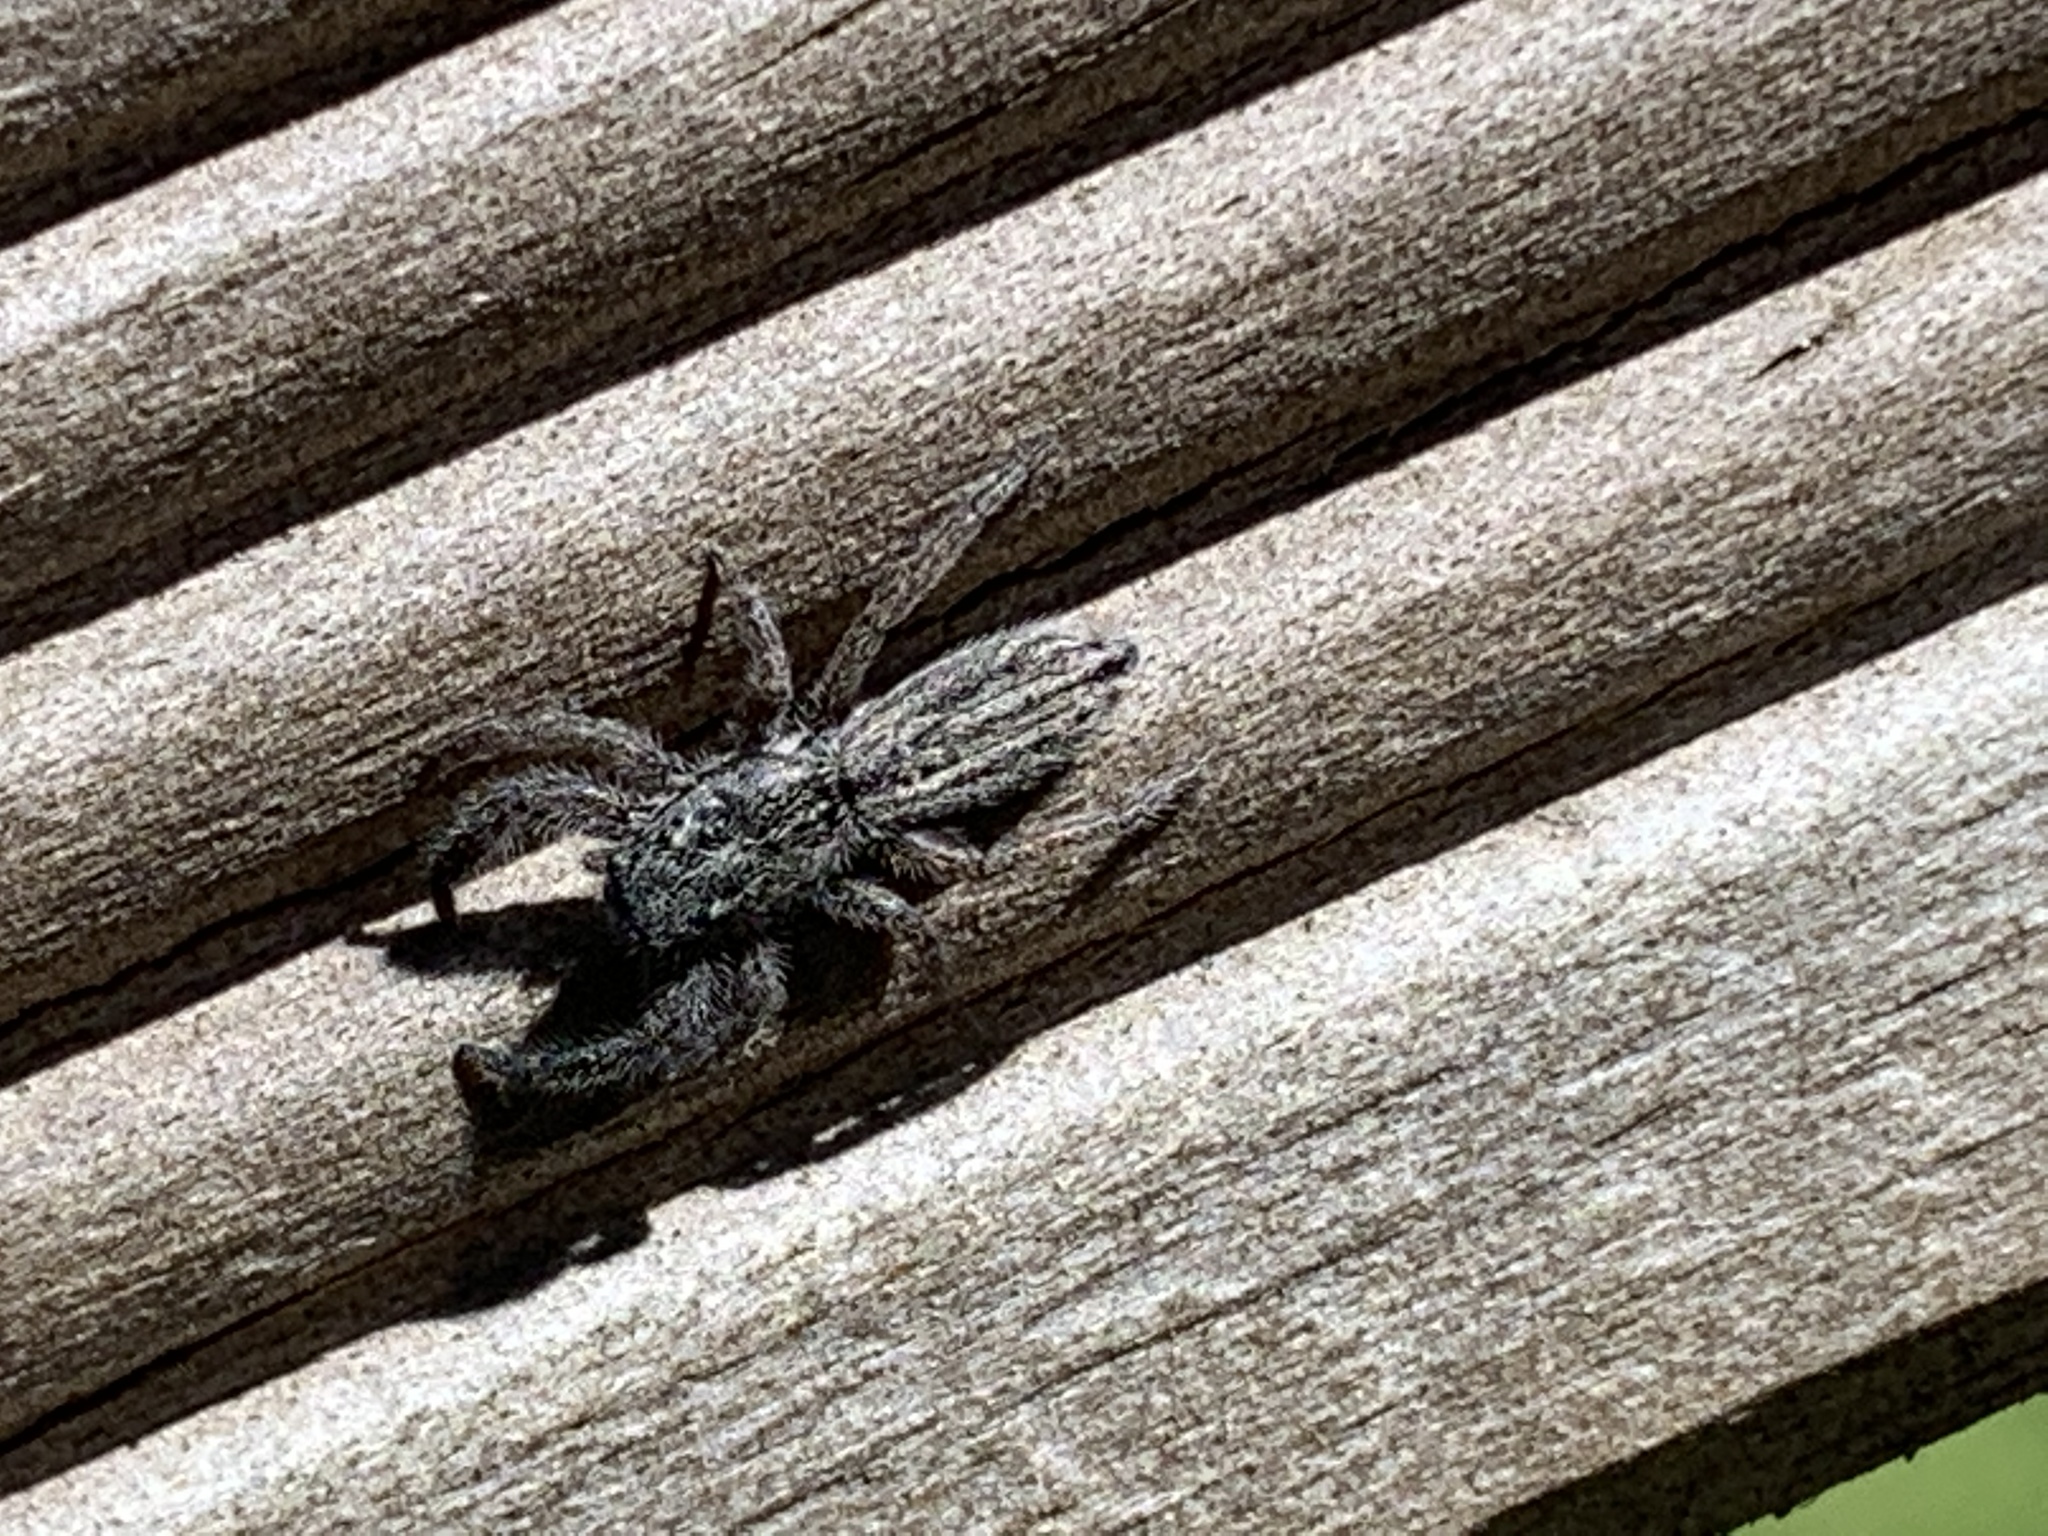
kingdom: Animalia
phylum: Arthropoda
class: Arachnida
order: Araneae
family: Salticidae
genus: Holoplatys
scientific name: Holoplatys apressus
